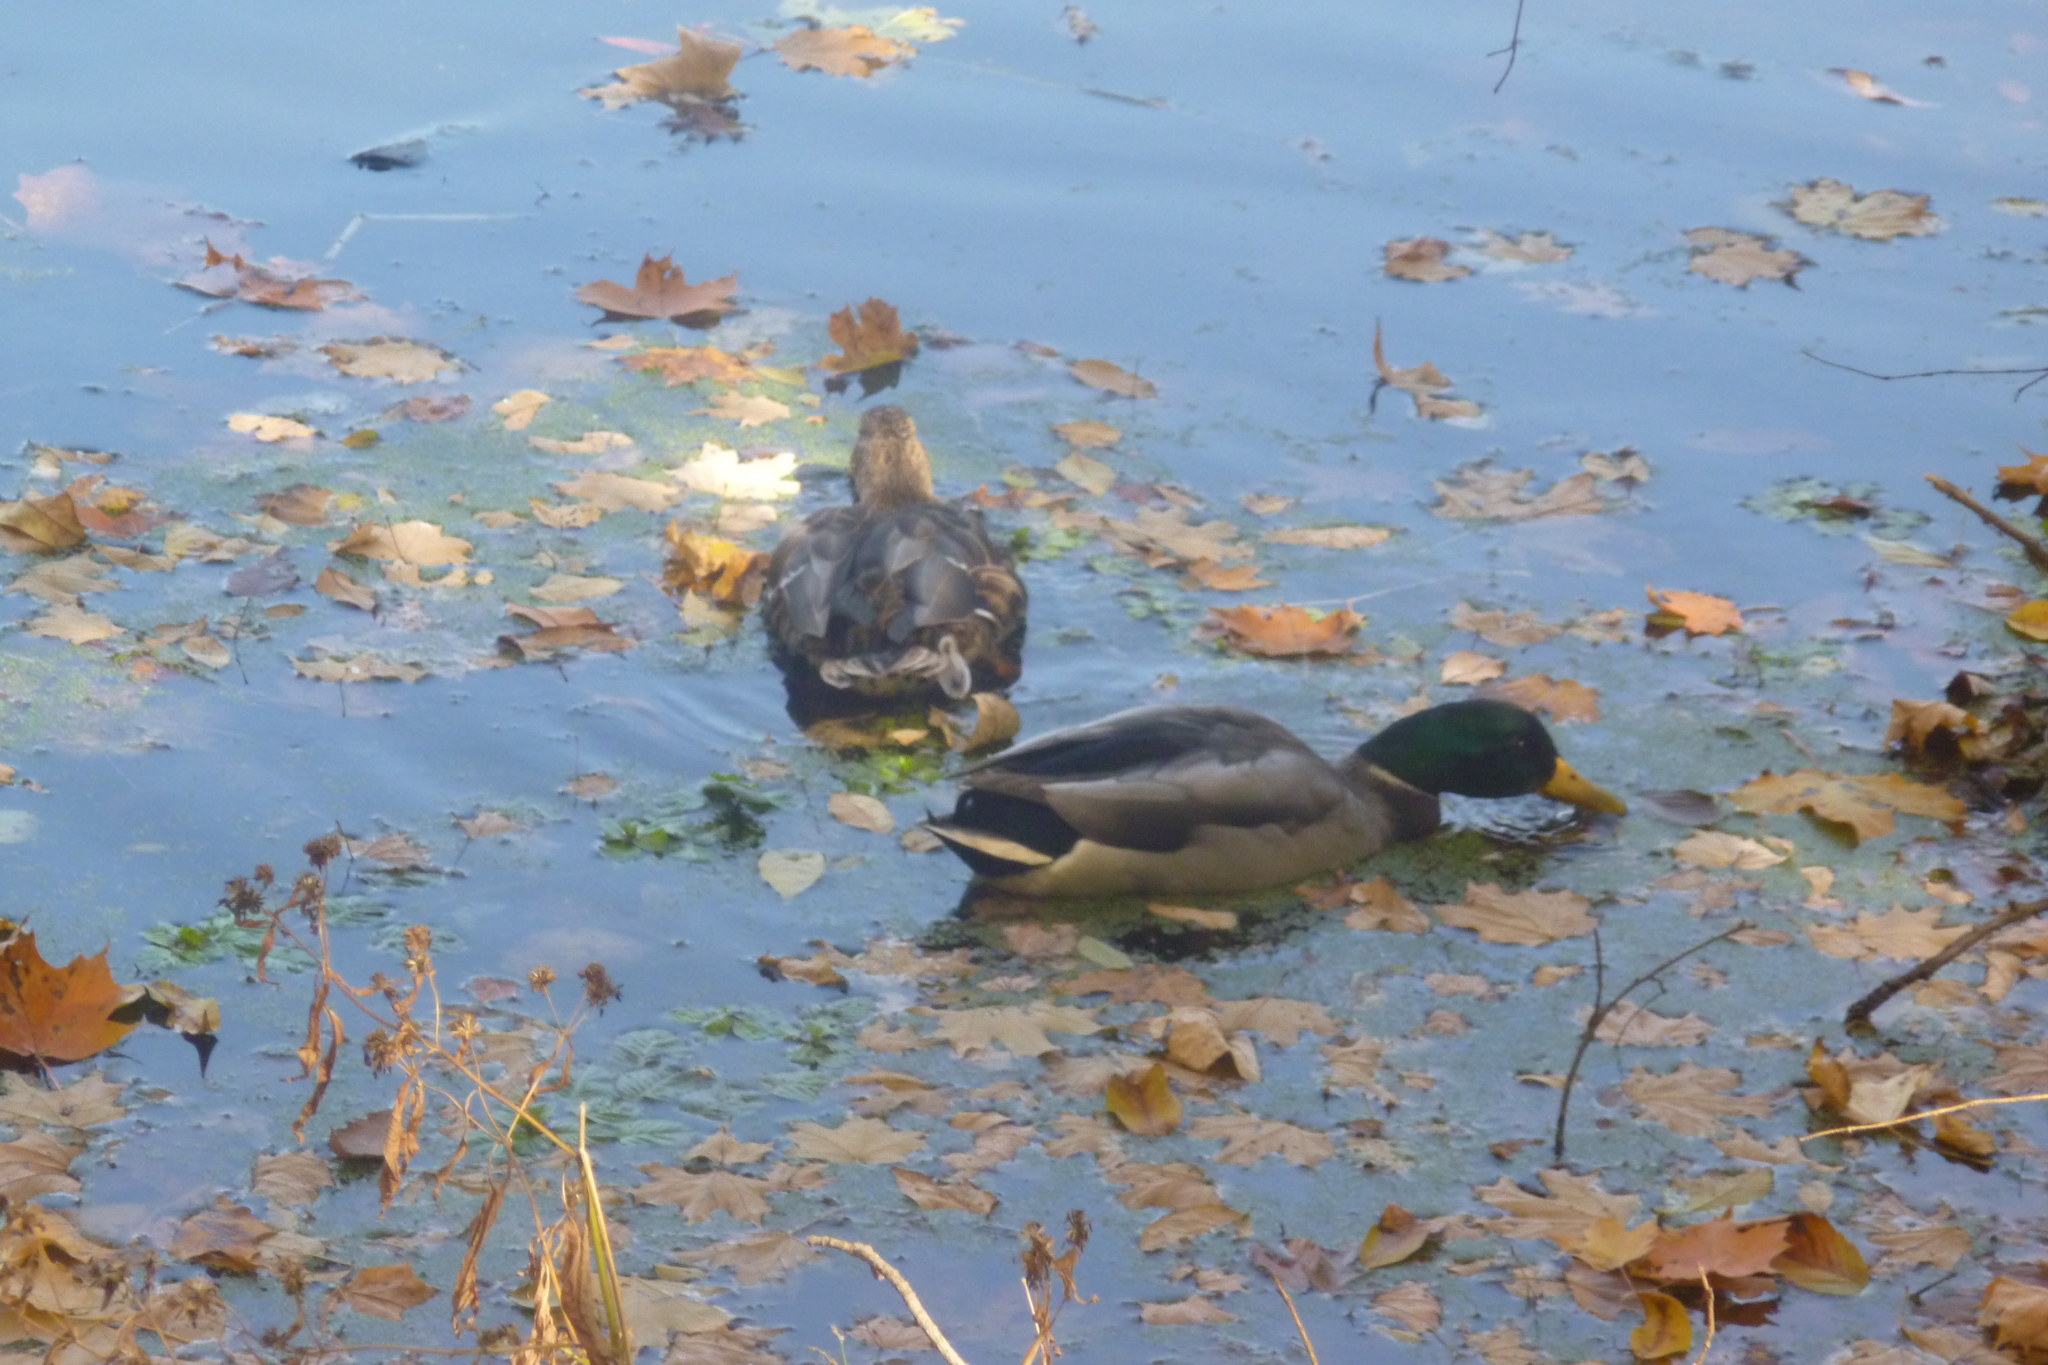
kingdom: Animalia
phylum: Chordata
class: Aves
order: Anseriformes
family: Anatidae
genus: Anas
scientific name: Anas platyrhynchos
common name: Mallard
